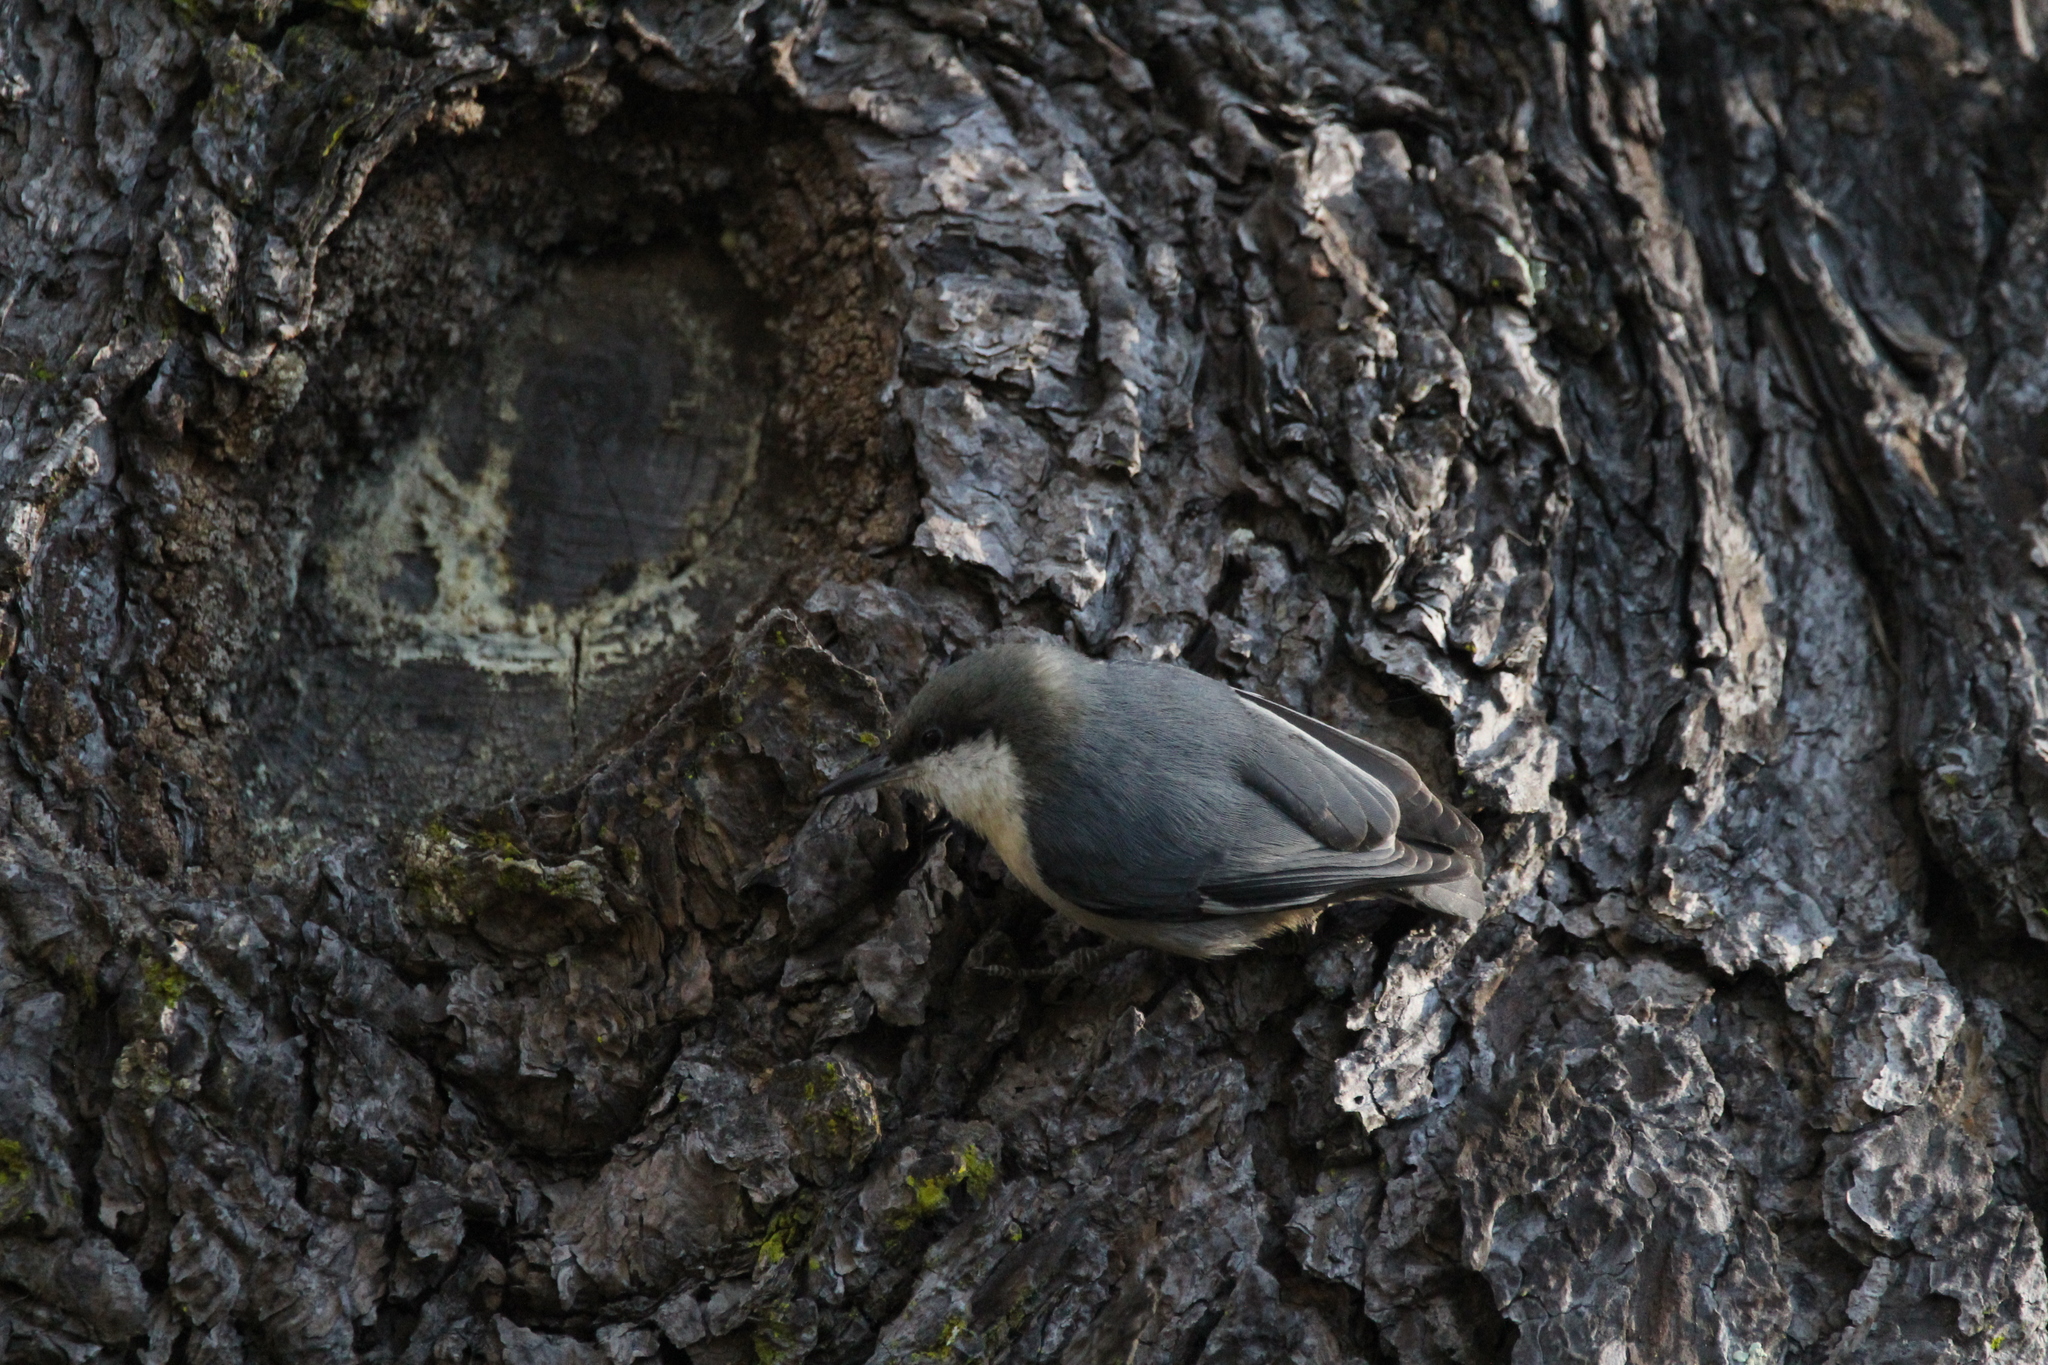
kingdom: Animalia
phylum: Chordata
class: Aves
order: Passeriformes
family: Sittidae
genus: Sitta
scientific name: Sitta pygmaea
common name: Pygmy nuthatch
